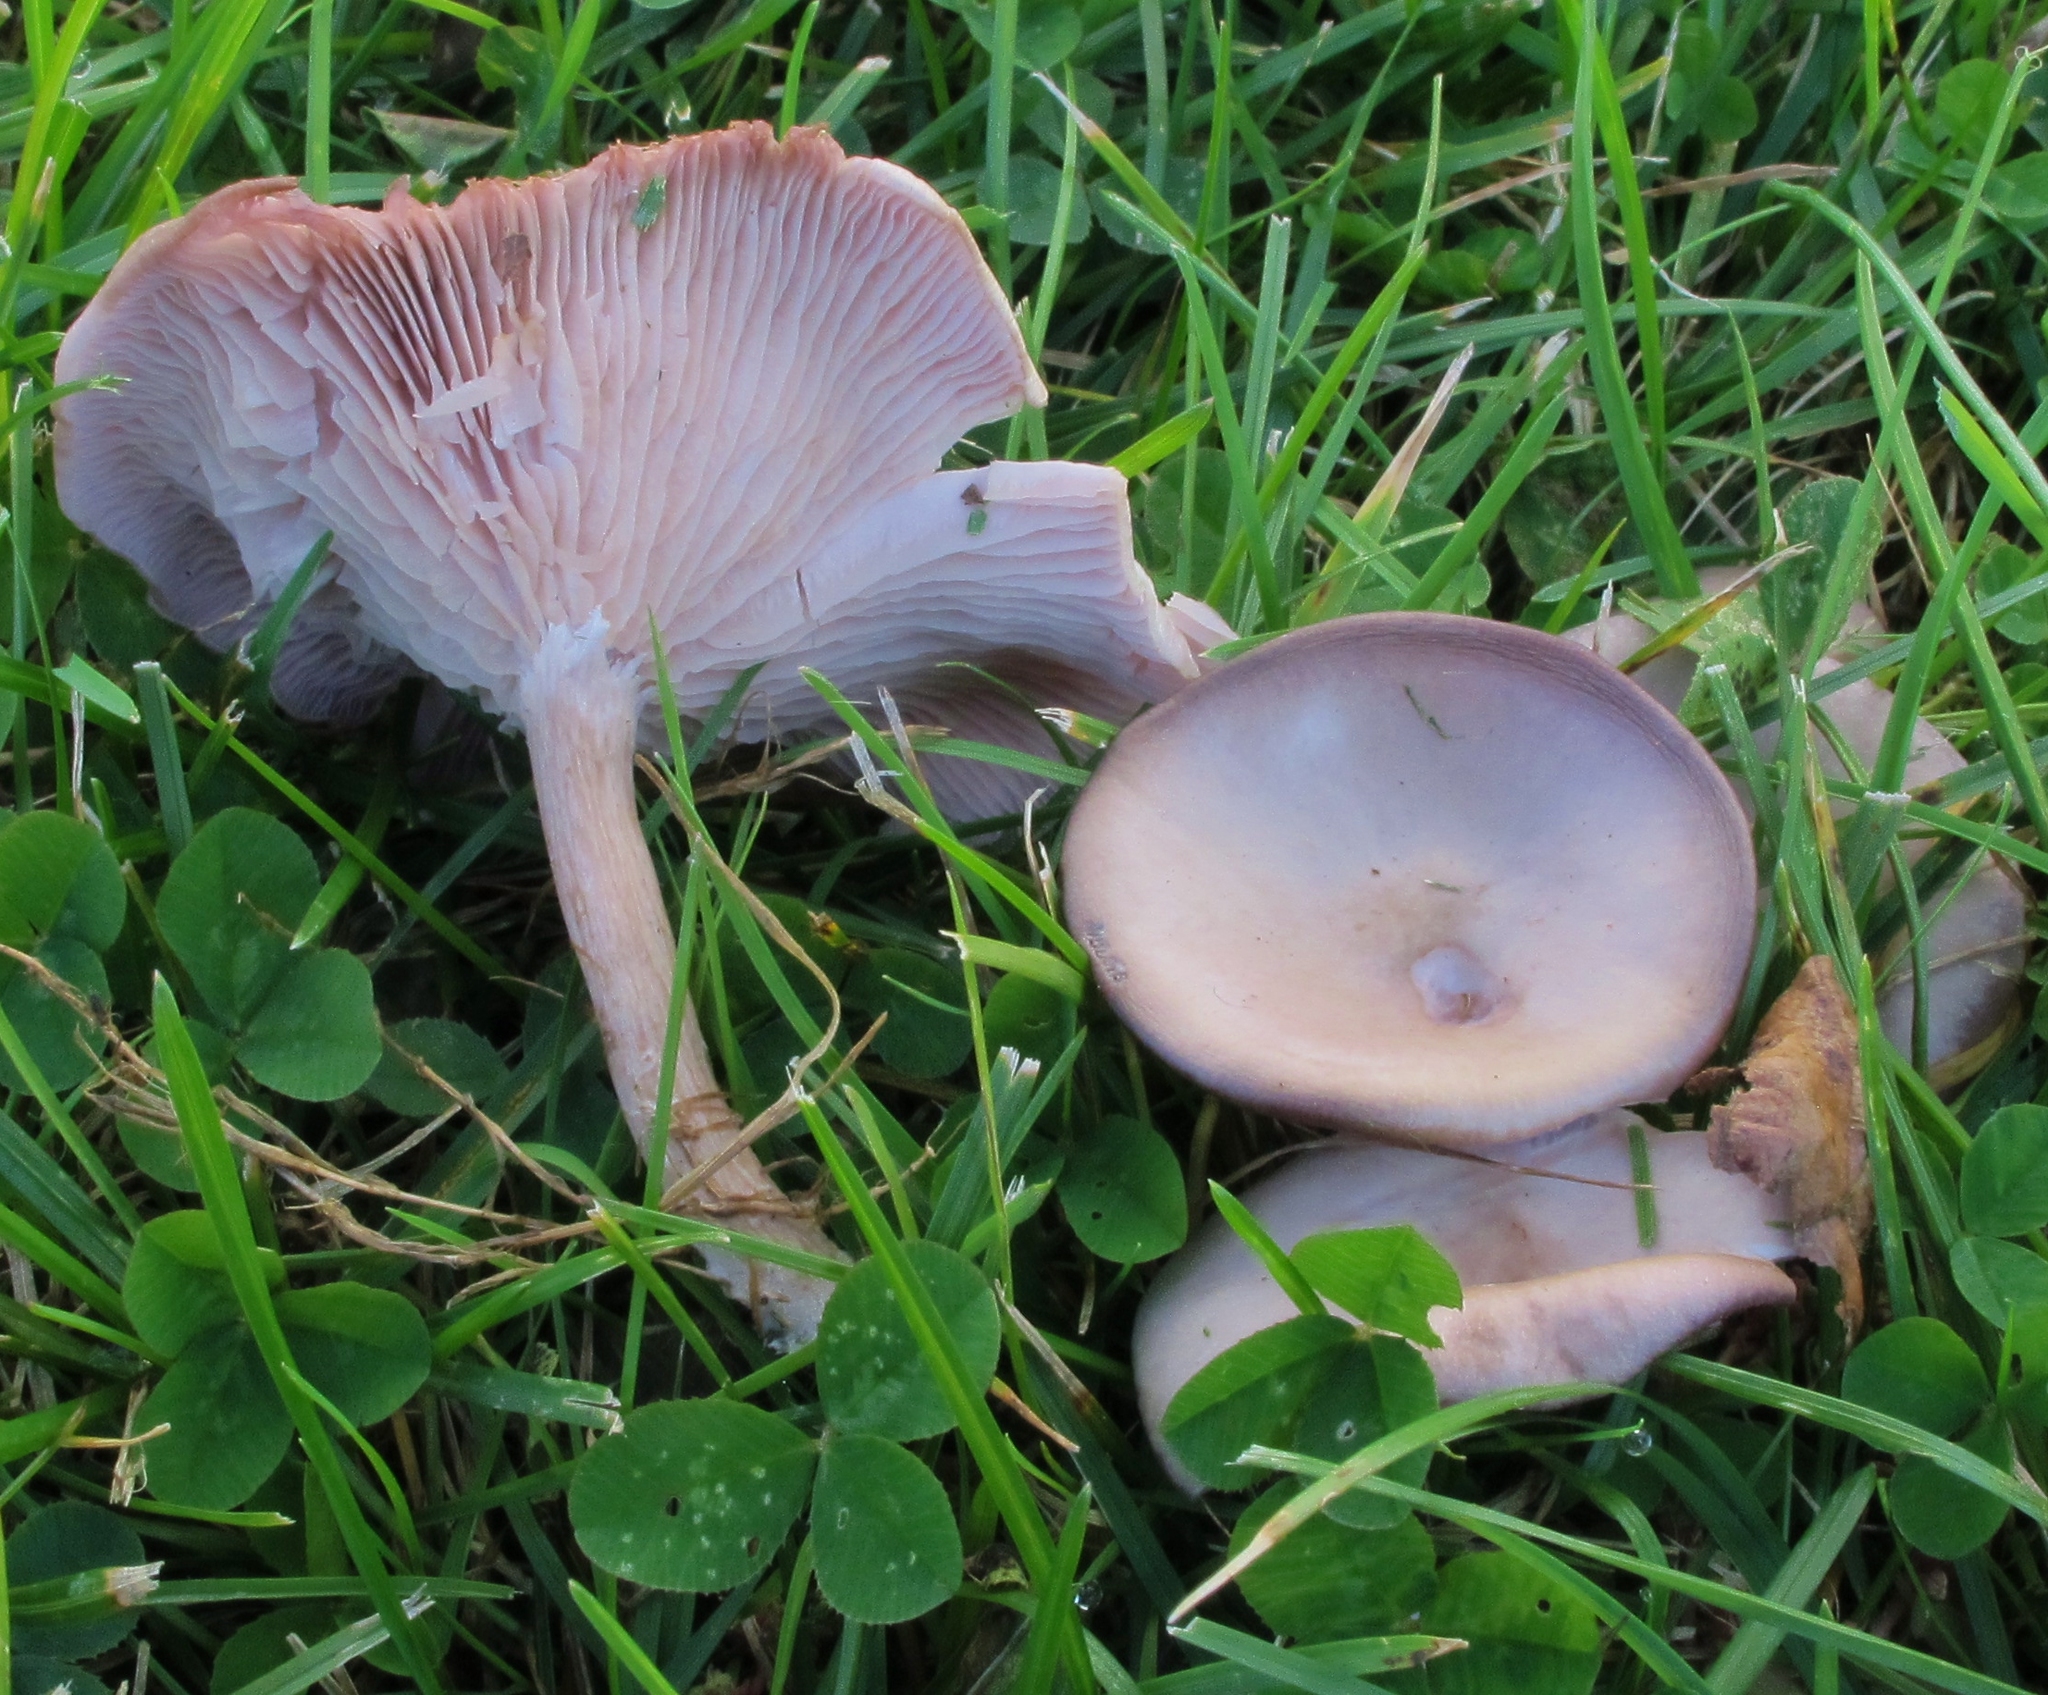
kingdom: Fungi
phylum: Basidiomycota
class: Agaricomycetes
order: Agaricales
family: Tricholomataceae
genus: Lepista
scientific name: Lepista tarda
